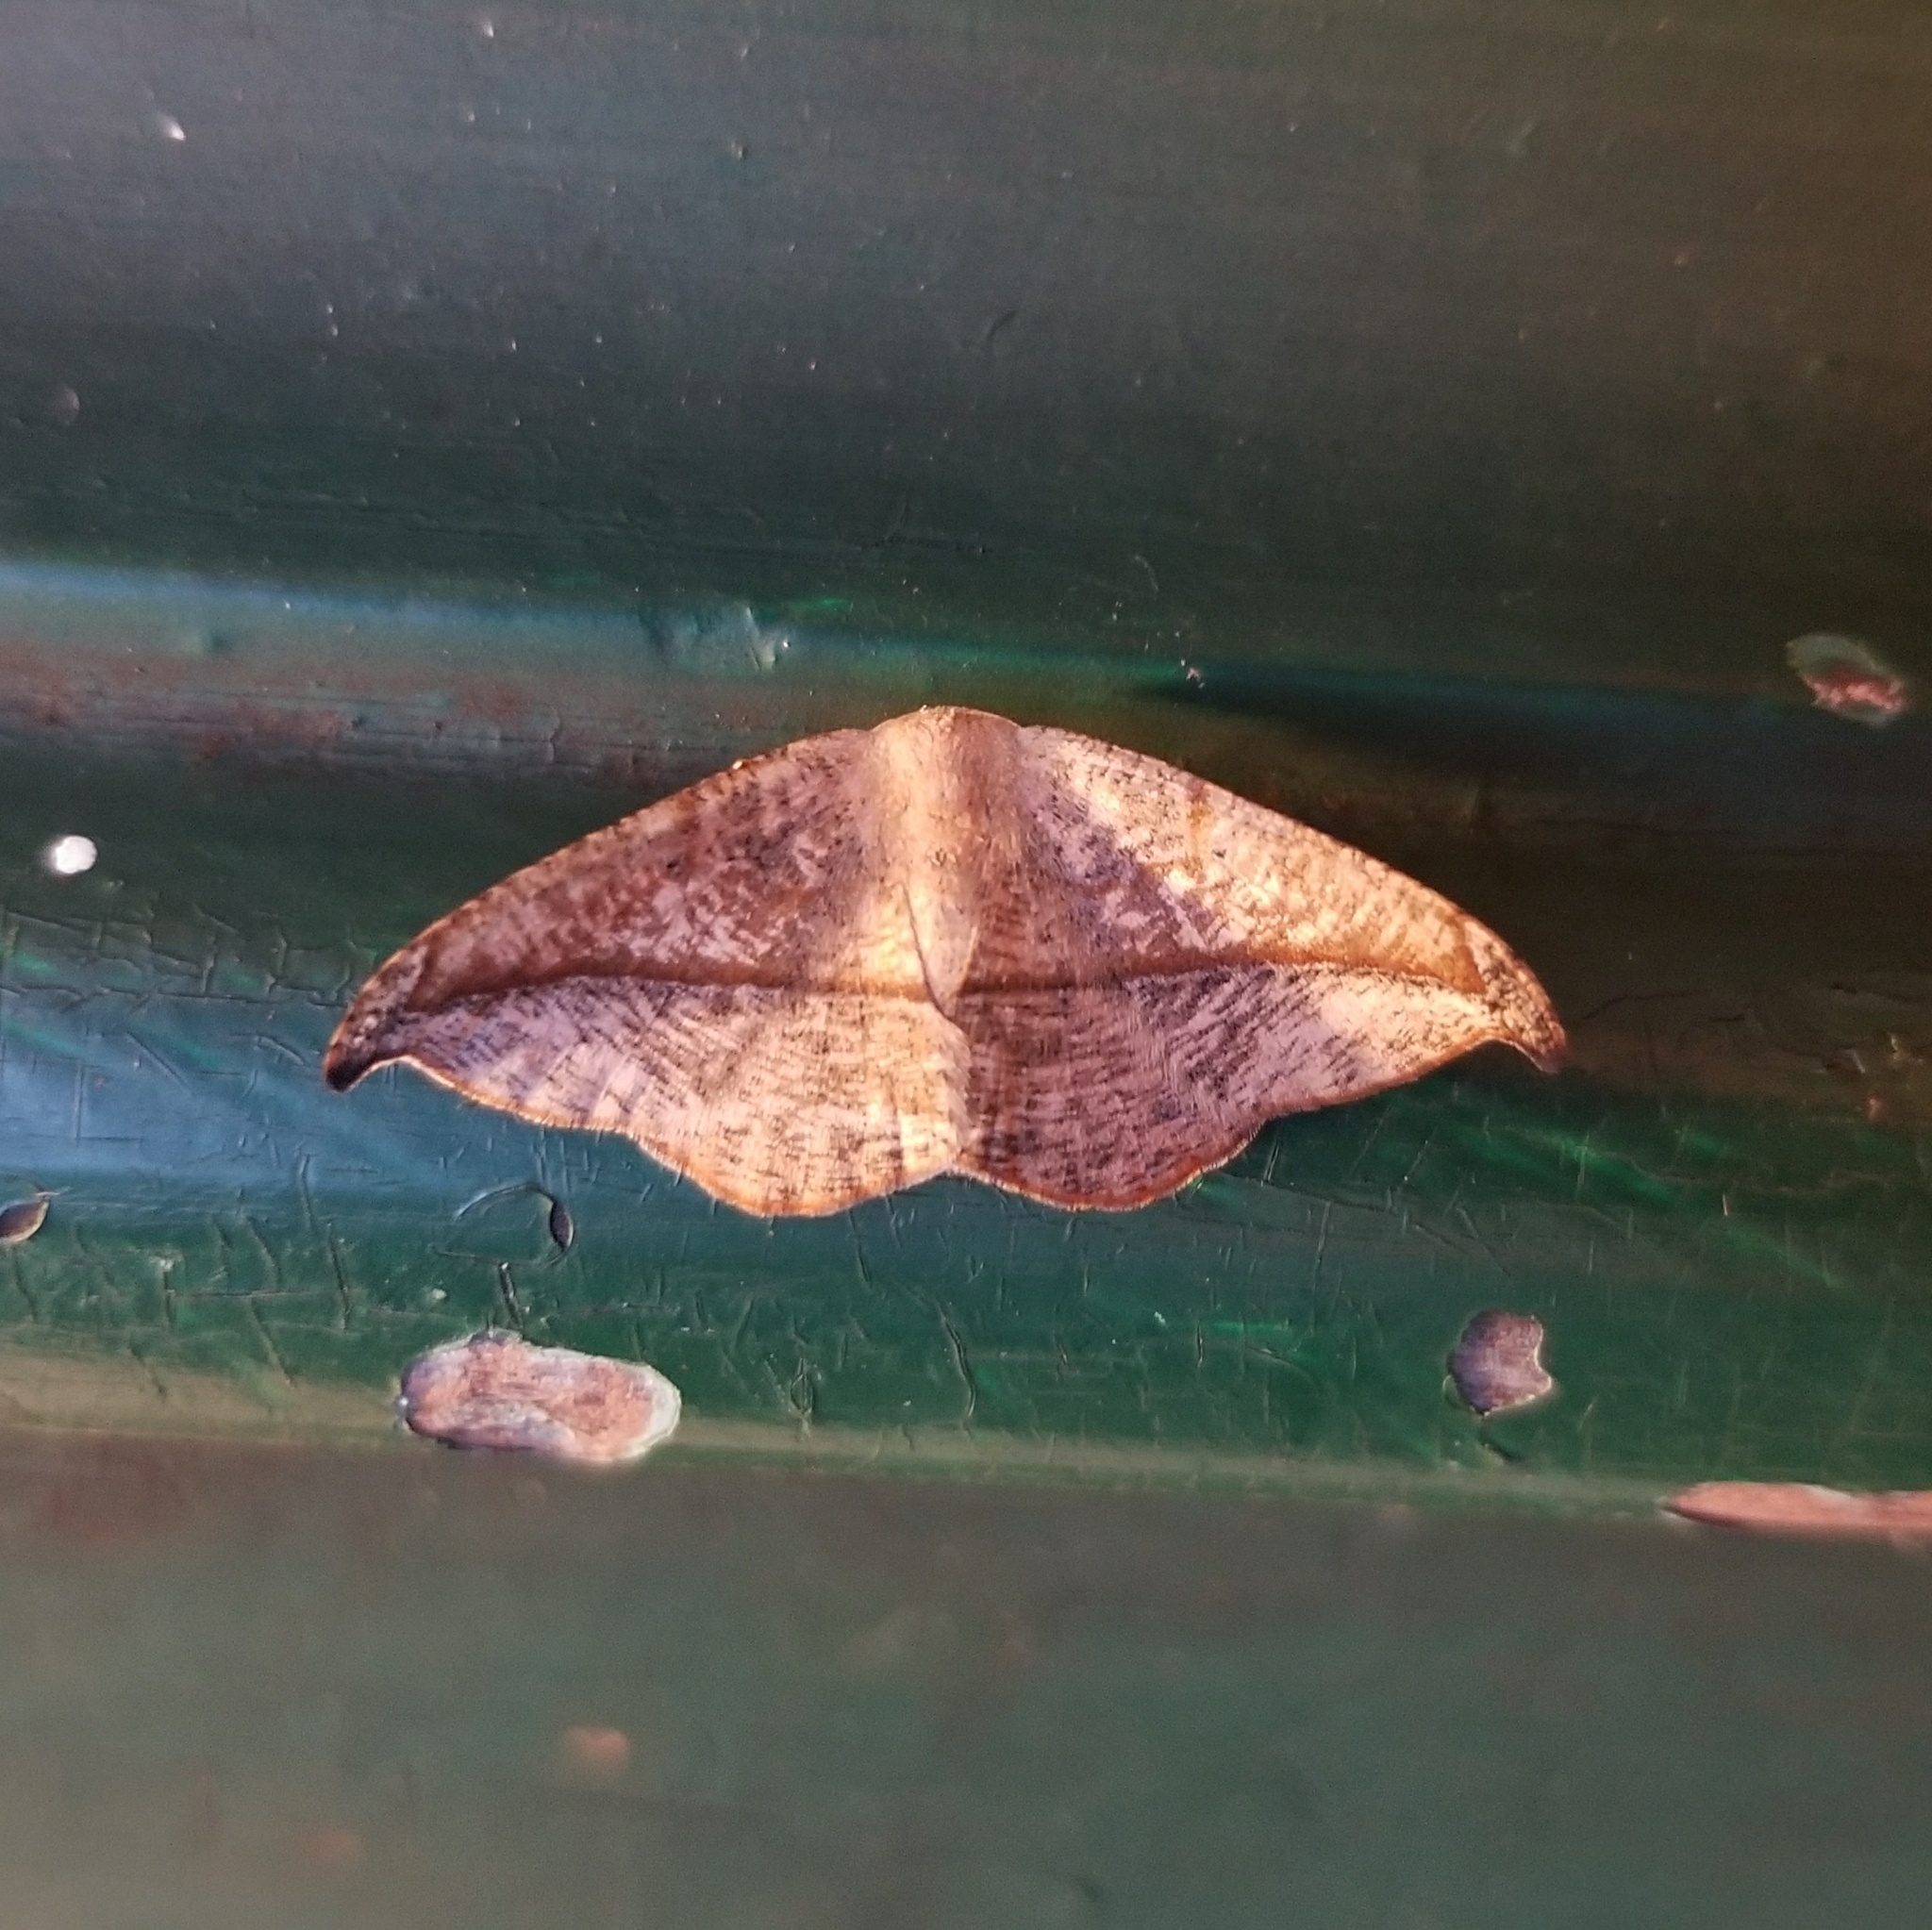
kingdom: Animalia
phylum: Arthropoda
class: Insecta
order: Lepidoptera
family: Geometridae
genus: Patalene
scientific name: Patalene olyzonaria
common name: Juniper geometer moth
